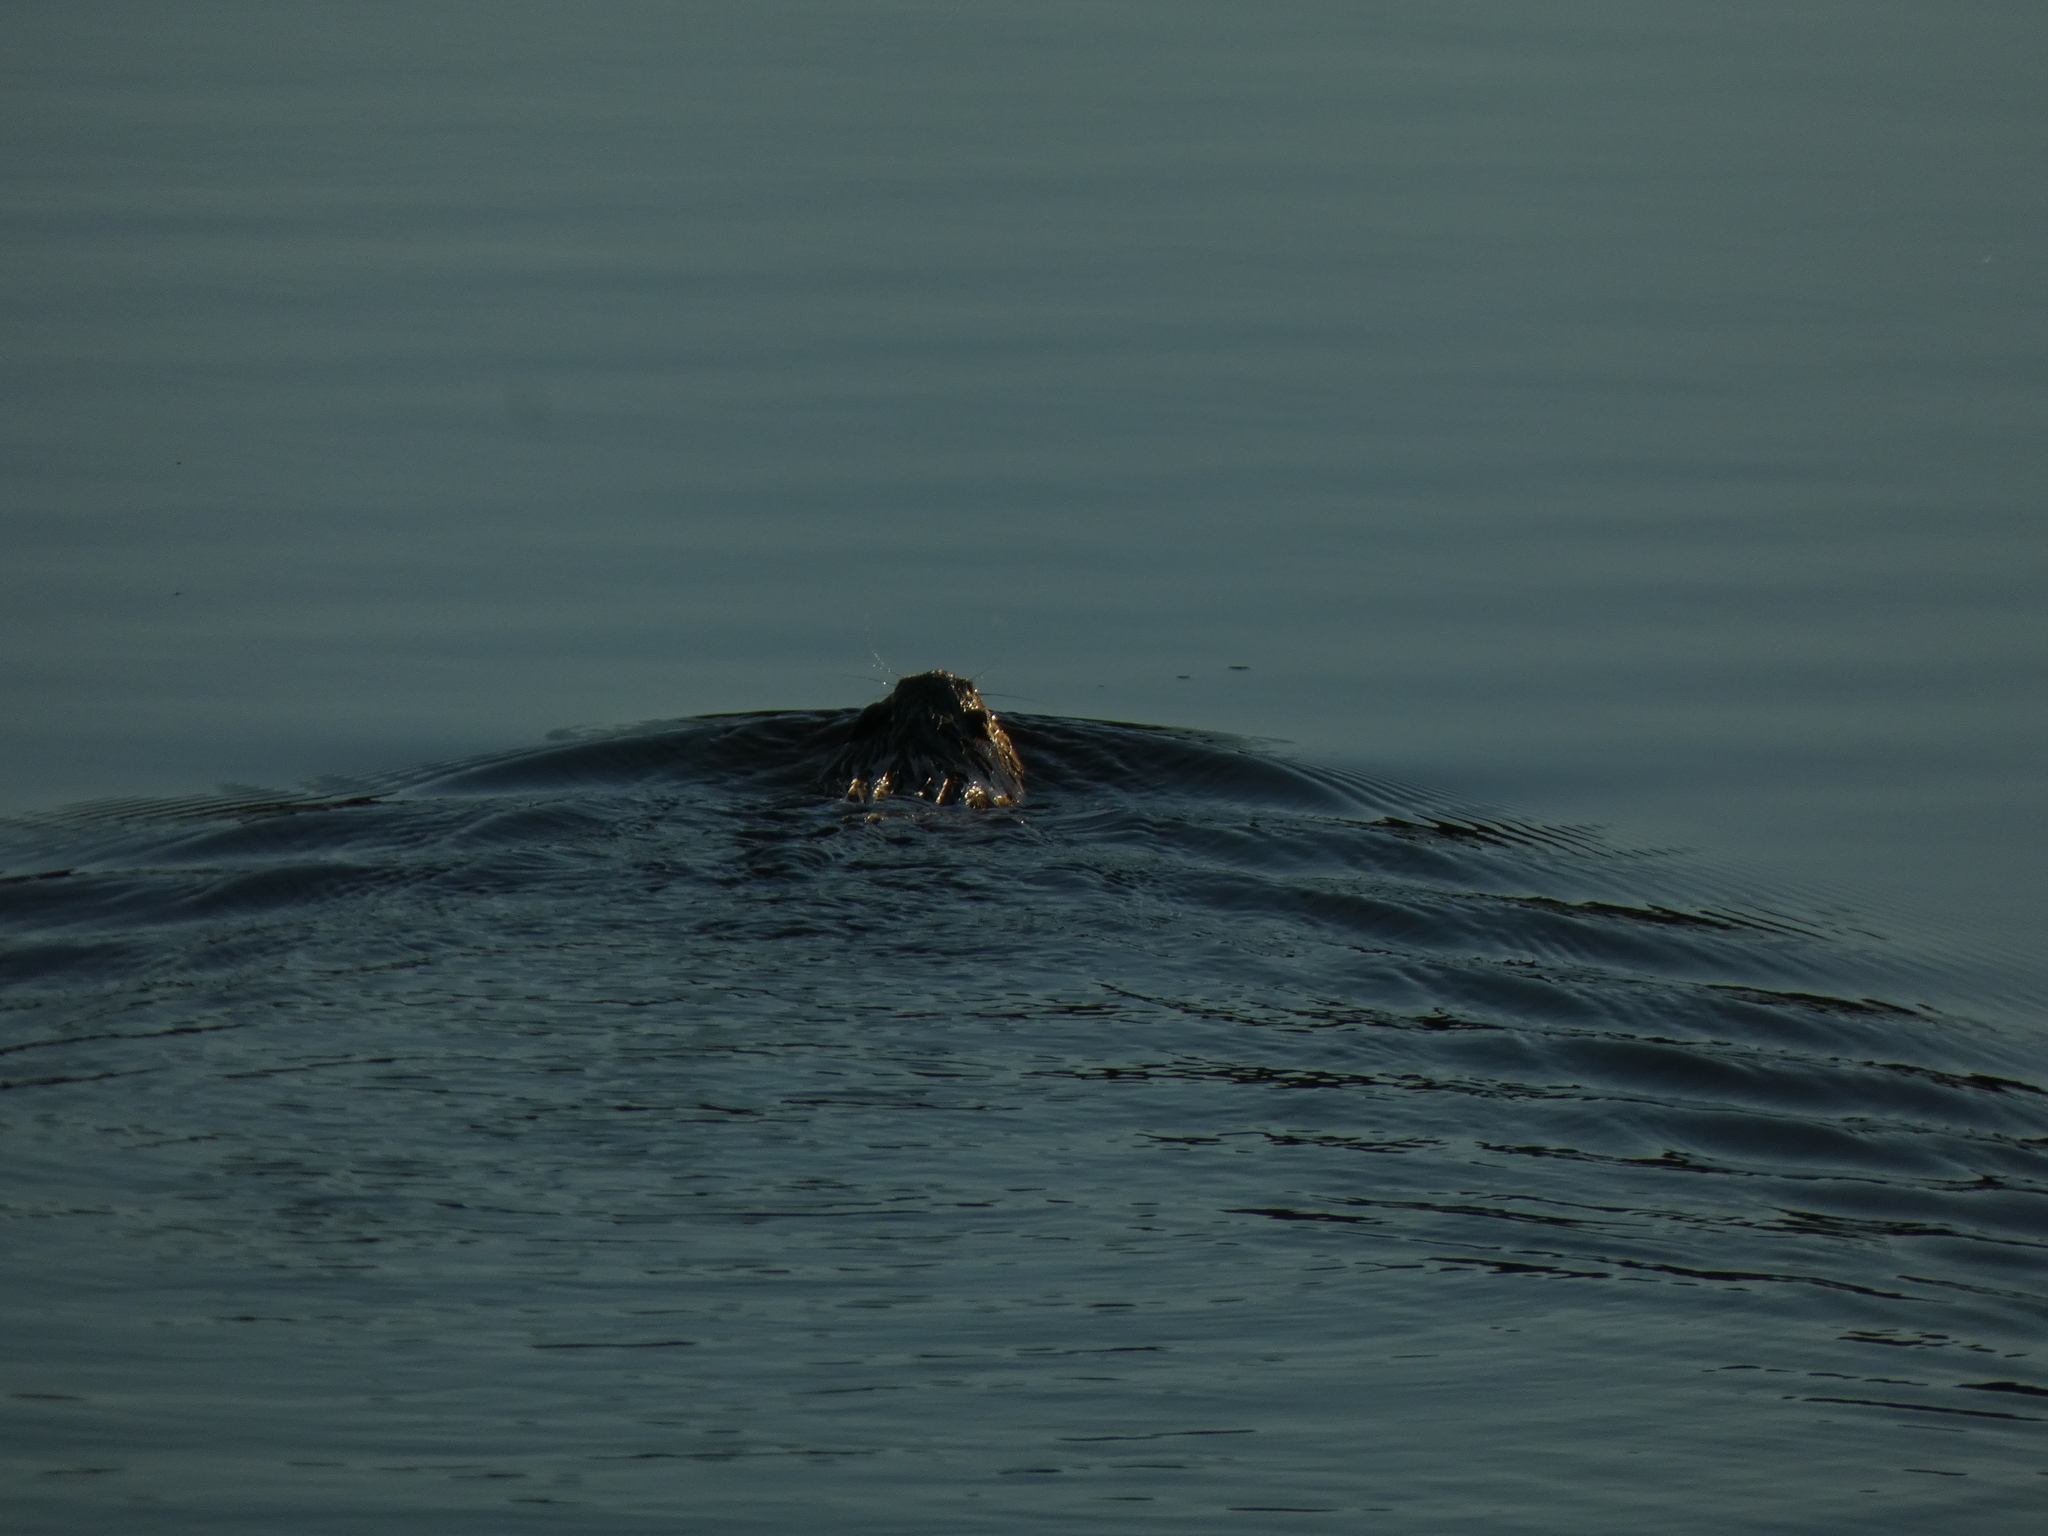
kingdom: Animalia
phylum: Chordata
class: Mammalia
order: Rodentia
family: Cricetidae
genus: Ondatra
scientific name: Ondatra zibethicus
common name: Muskrat
